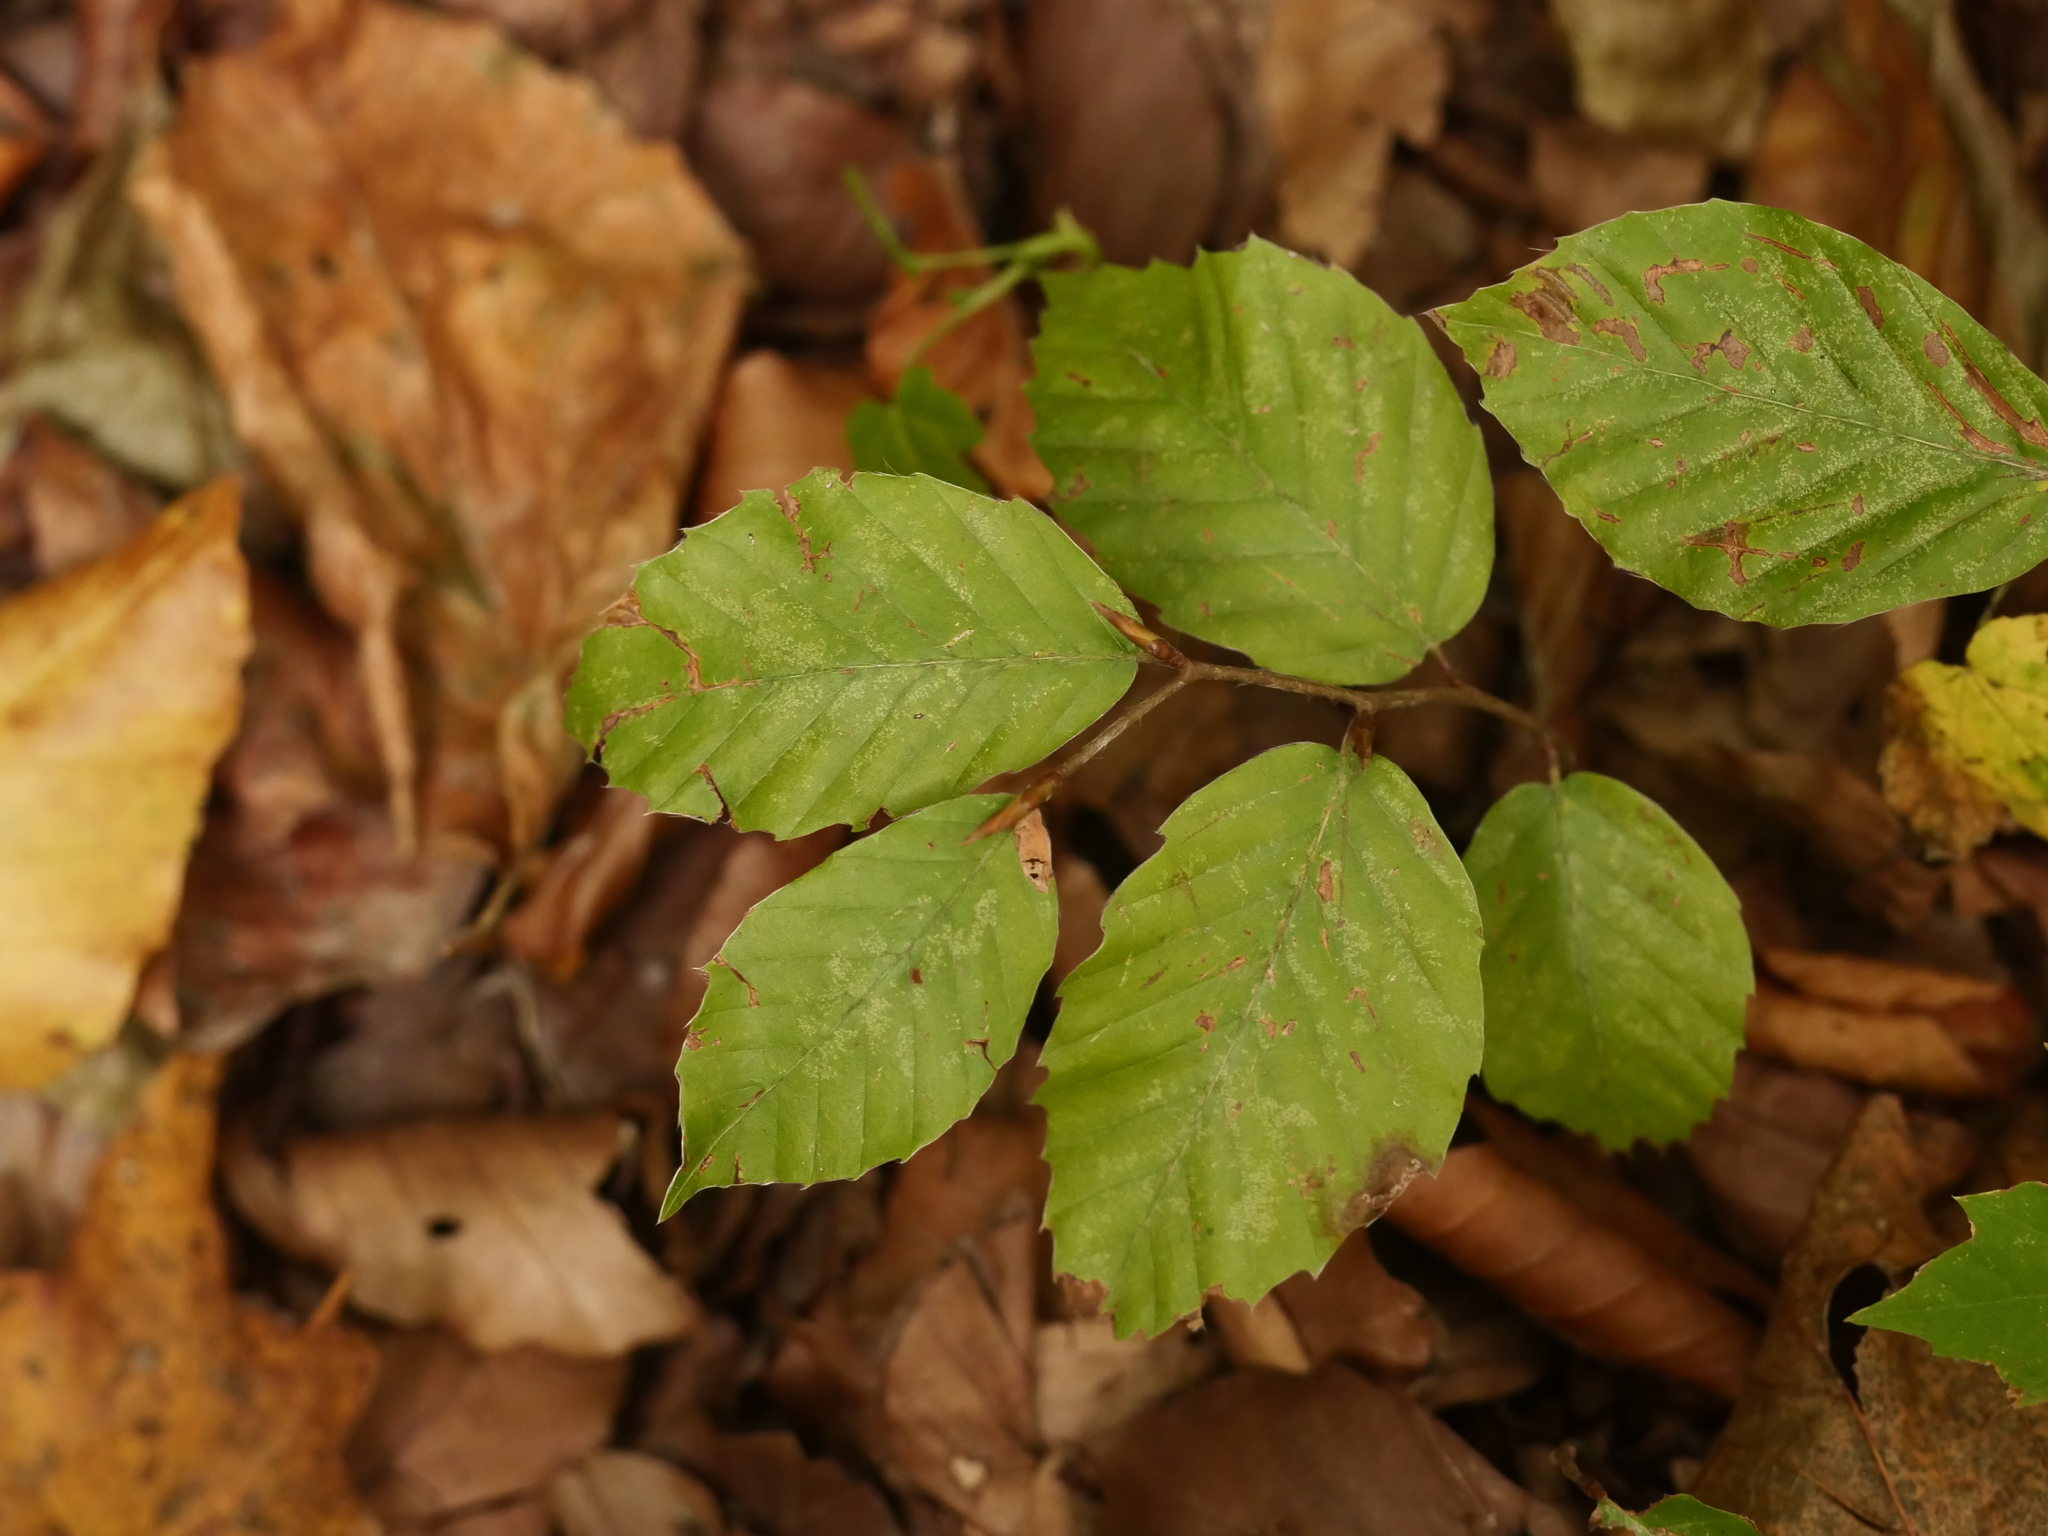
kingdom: Plantae
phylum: Tracheophyta
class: Magnoliopsida
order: Fagales
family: Fagaceae
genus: Fagus
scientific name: Fagus sylvatica
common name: Beech
